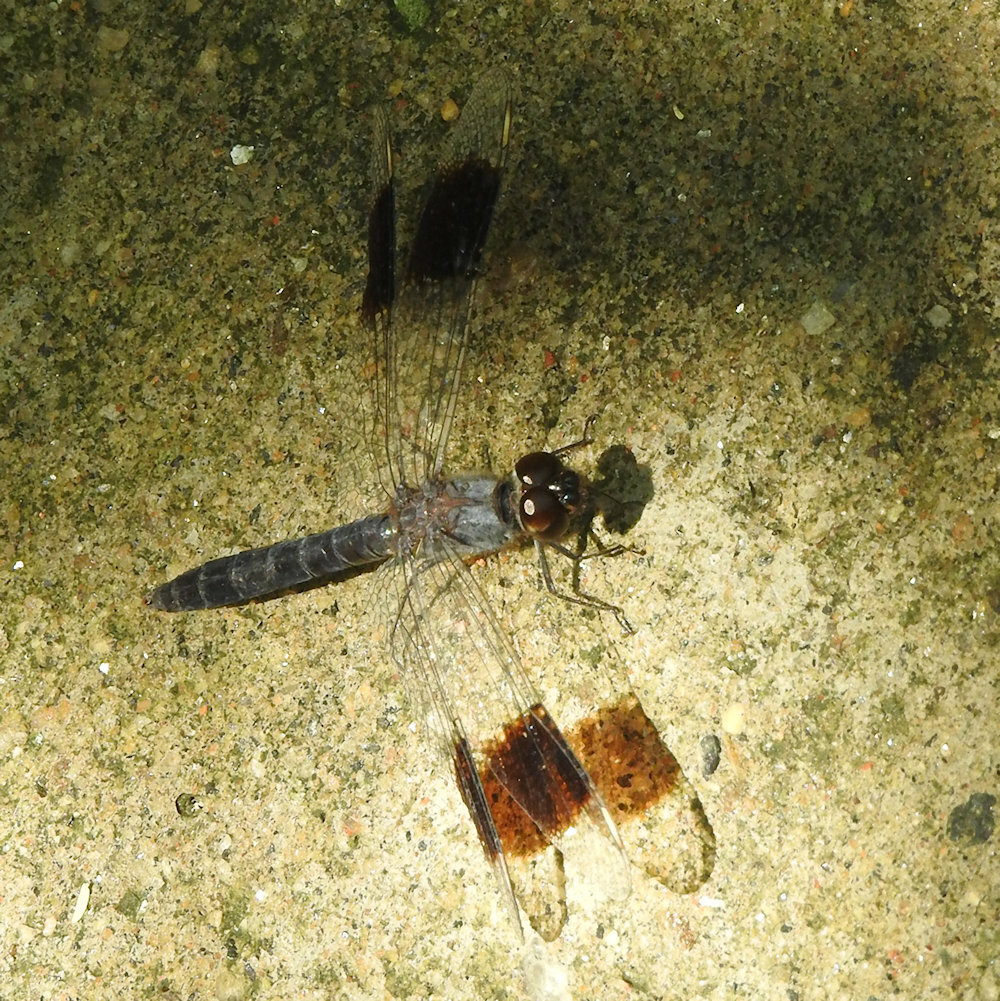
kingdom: Animalia
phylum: Arthropoda
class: Insecta
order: Odonata
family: Libellulidae
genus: Brachythemis
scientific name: Brachythemis leucosticta
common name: Banded groundling
